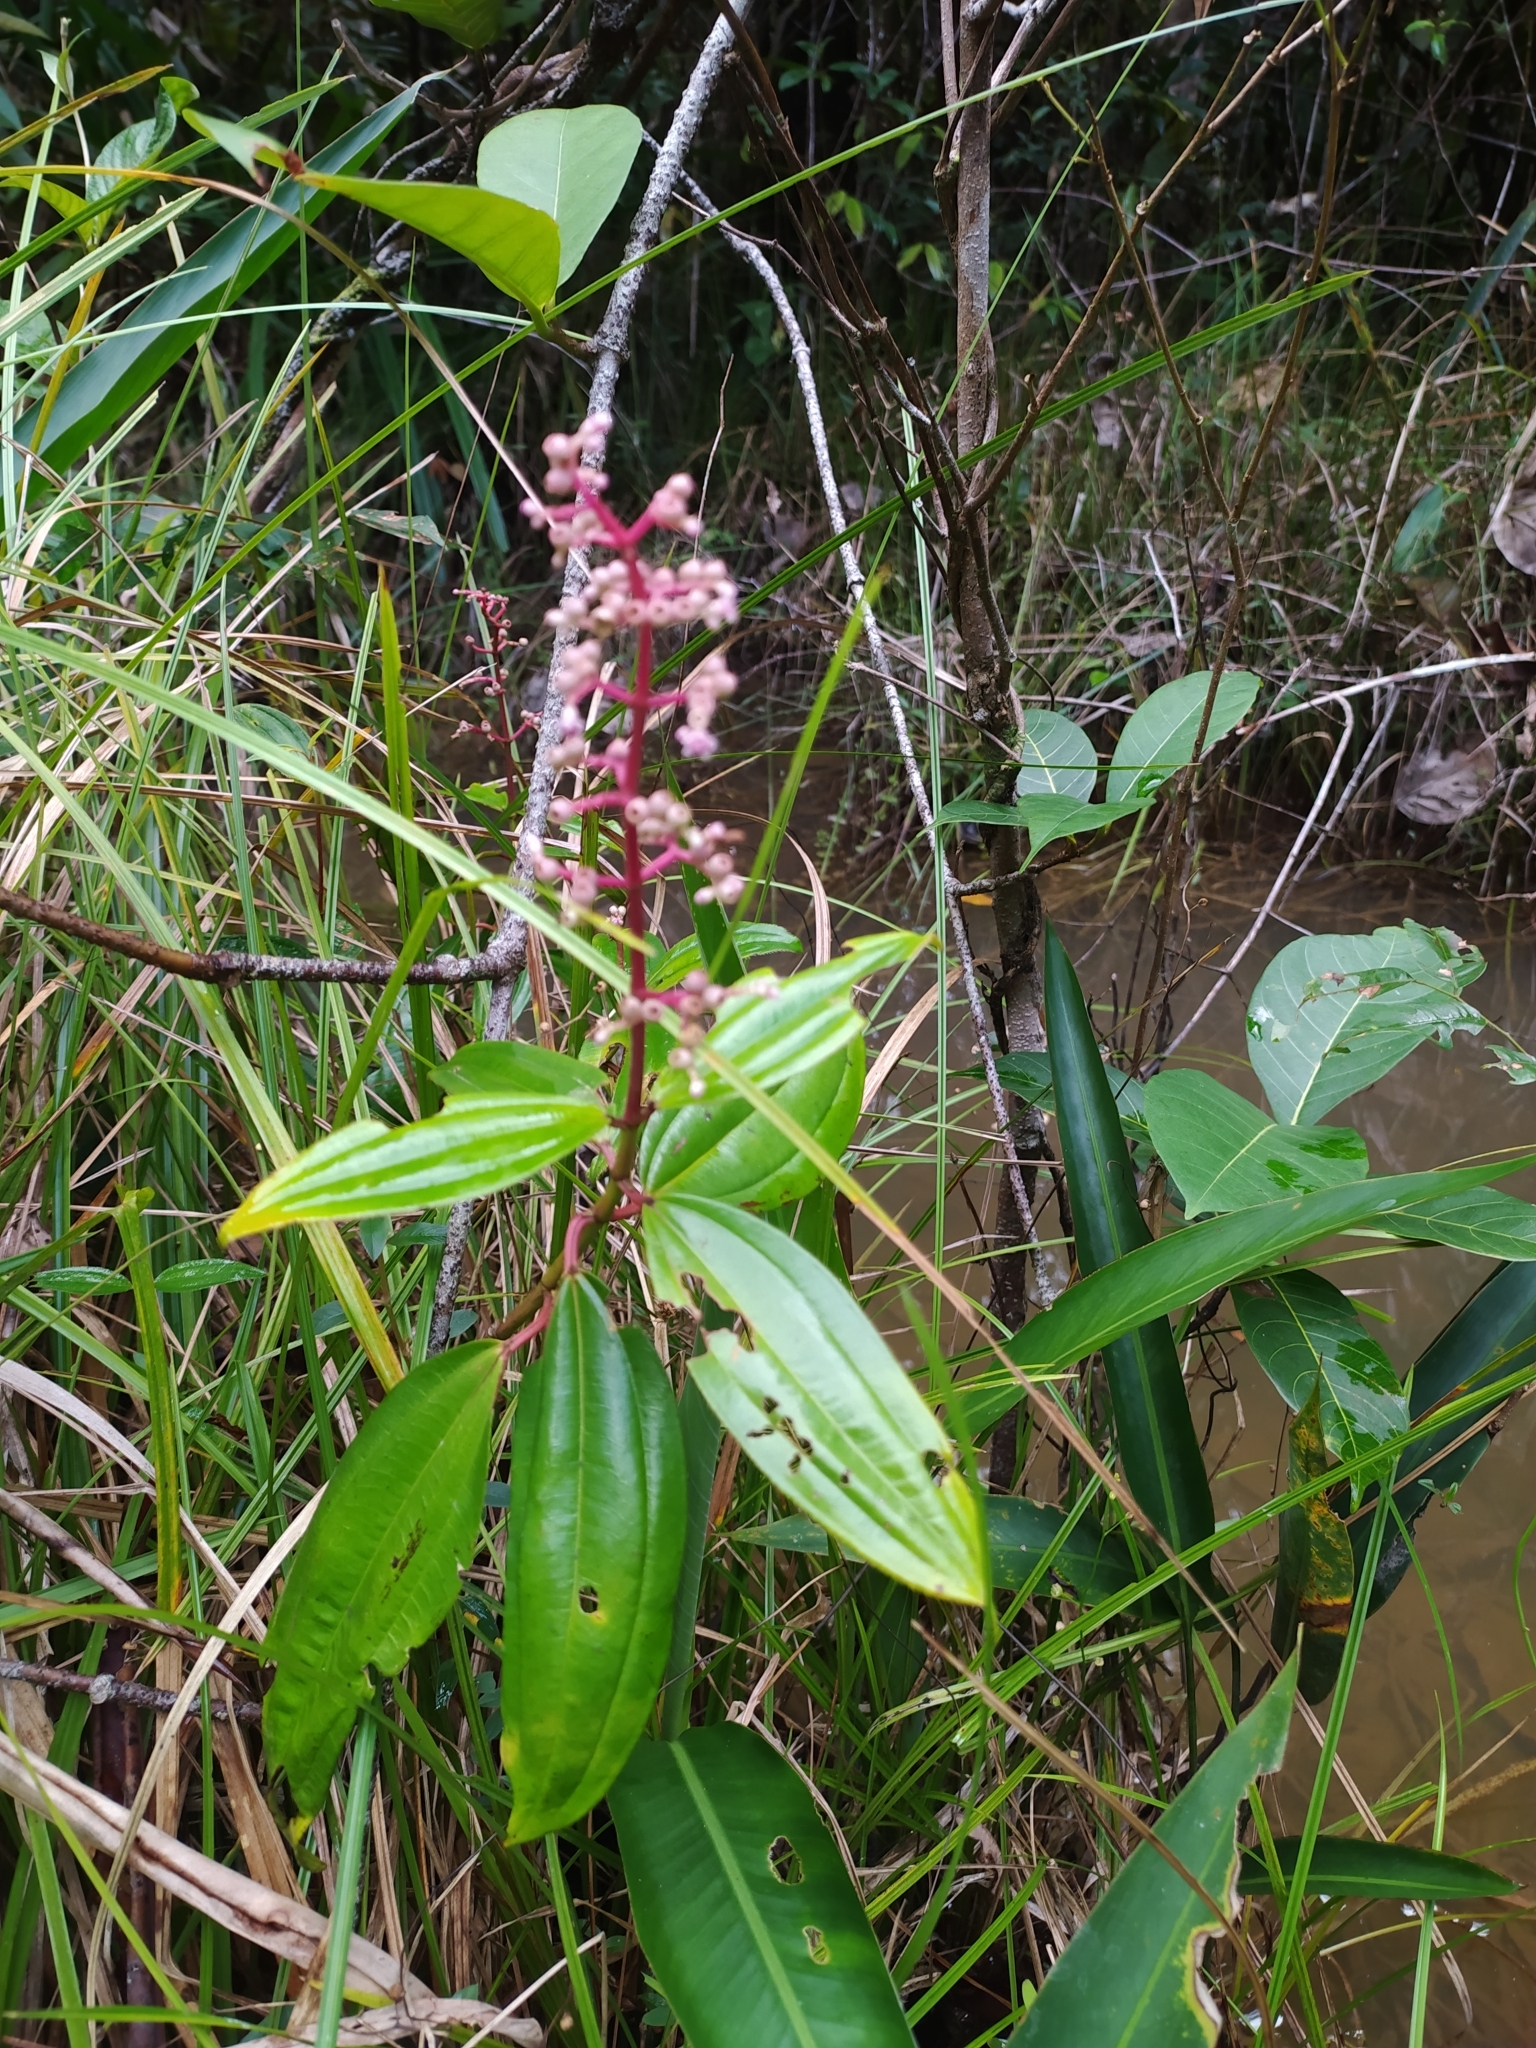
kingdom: Plantae
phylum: Tracheophyta
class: Magnoliopsida
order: Myrtales
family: Melastomataceae
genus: Miconia
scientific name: Miconia ciliata
